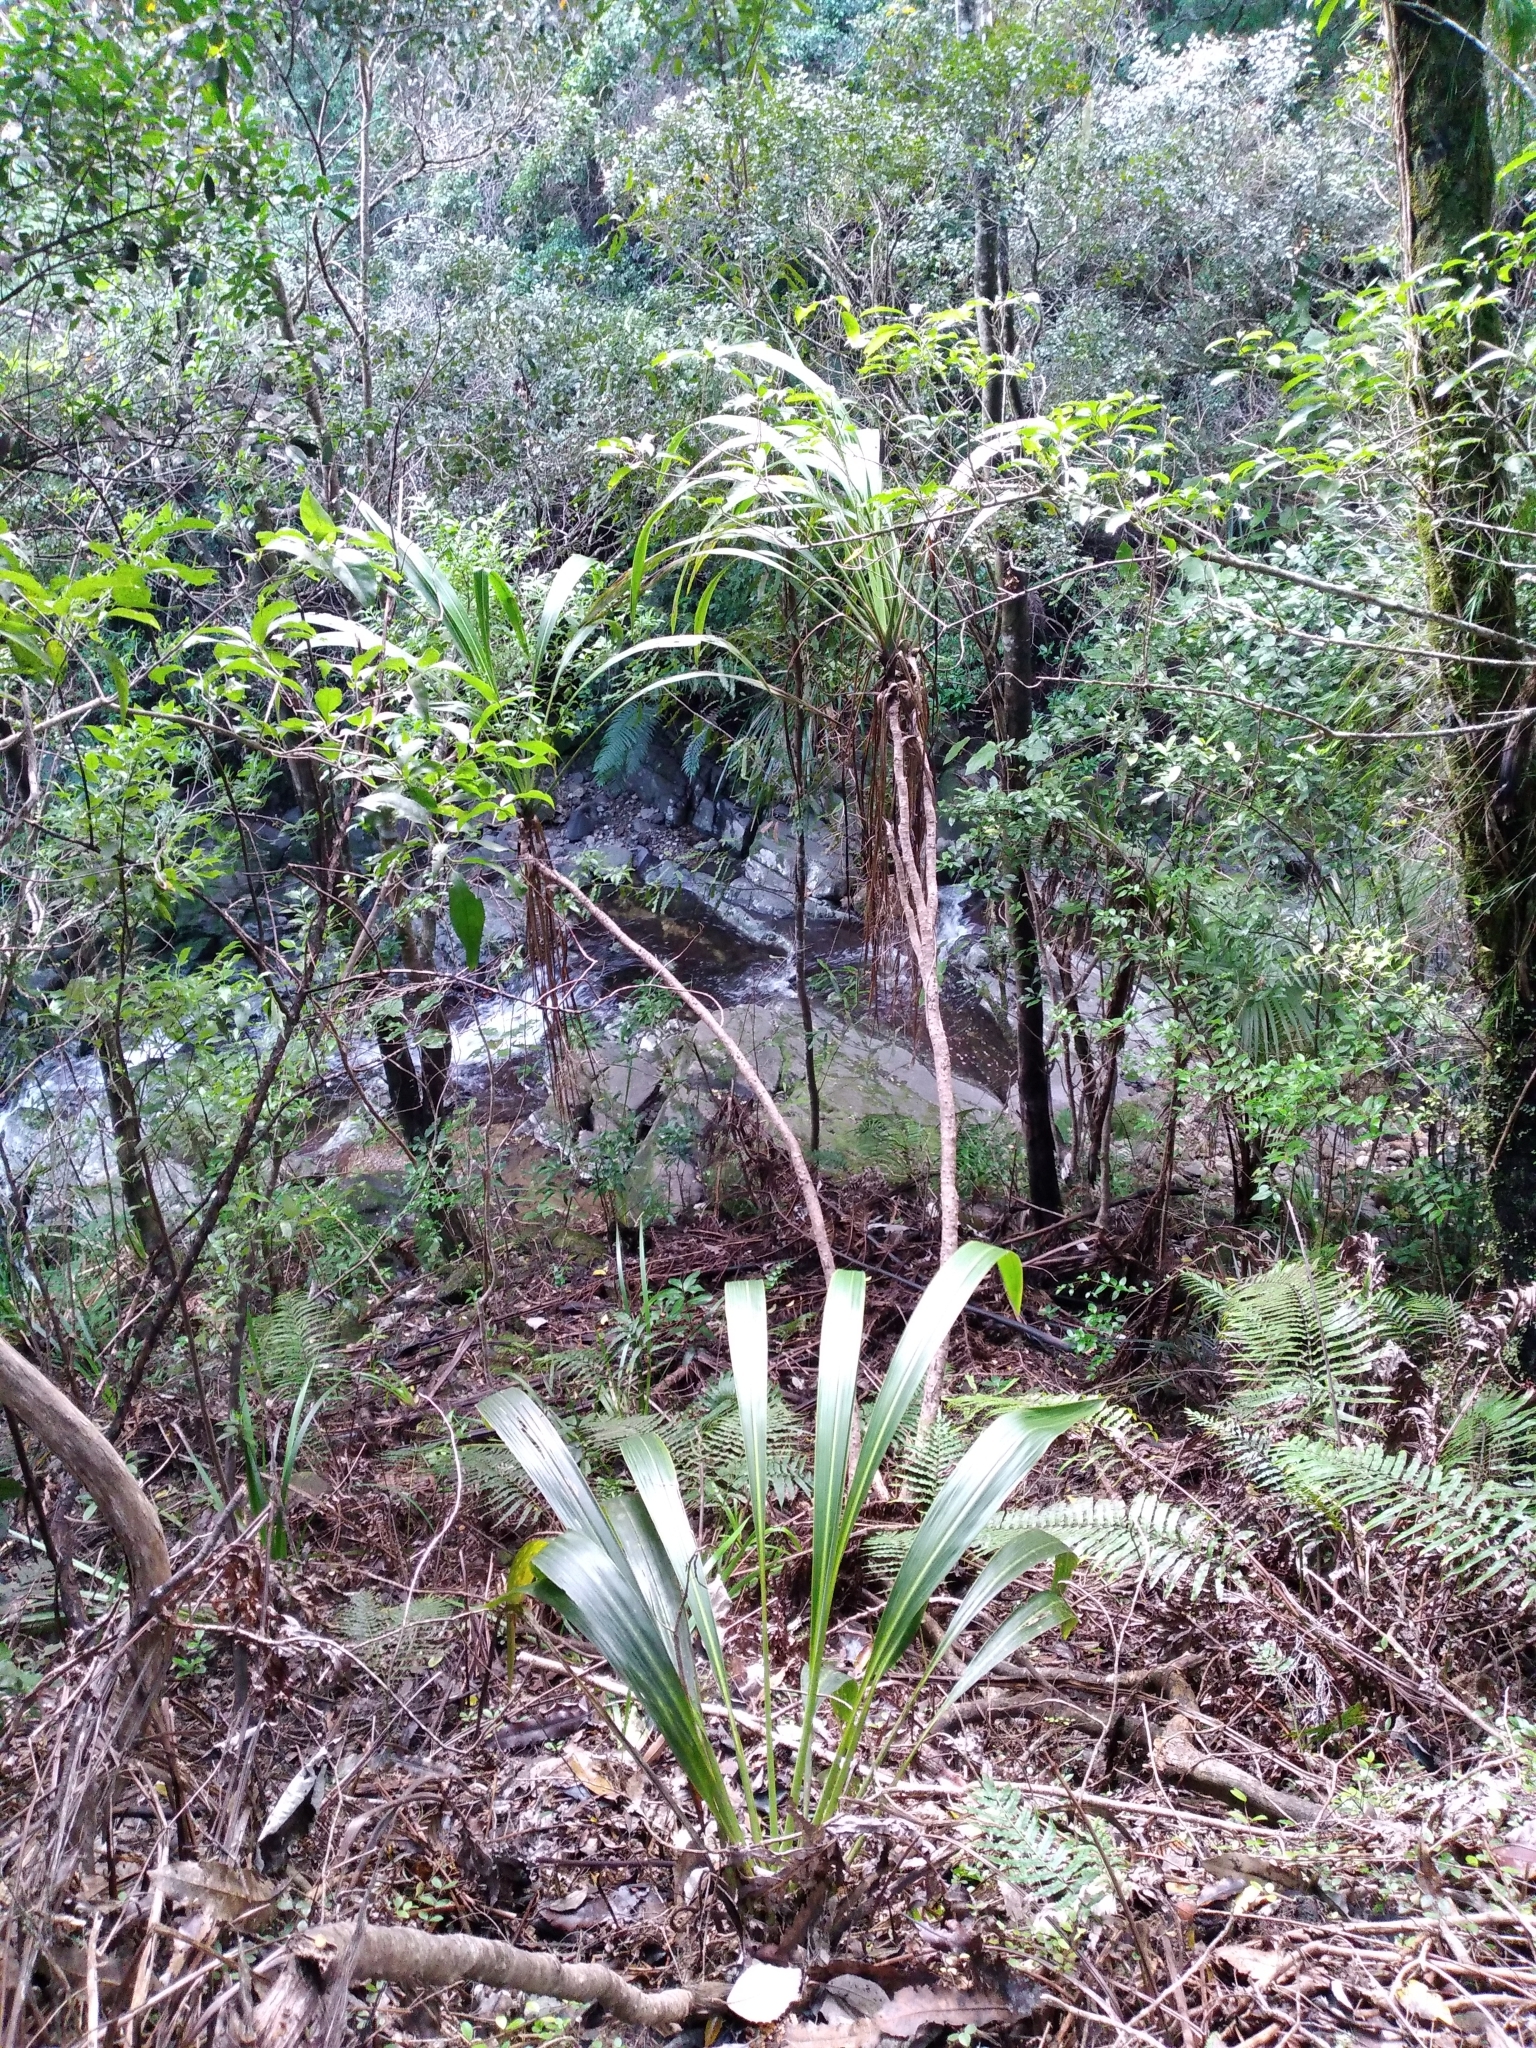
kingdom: Plantae
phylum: Tracheophyta
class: Liliopsida
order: Asparagales
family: Asparagaceae
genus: Cordyline
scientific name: Cordyline banksii
